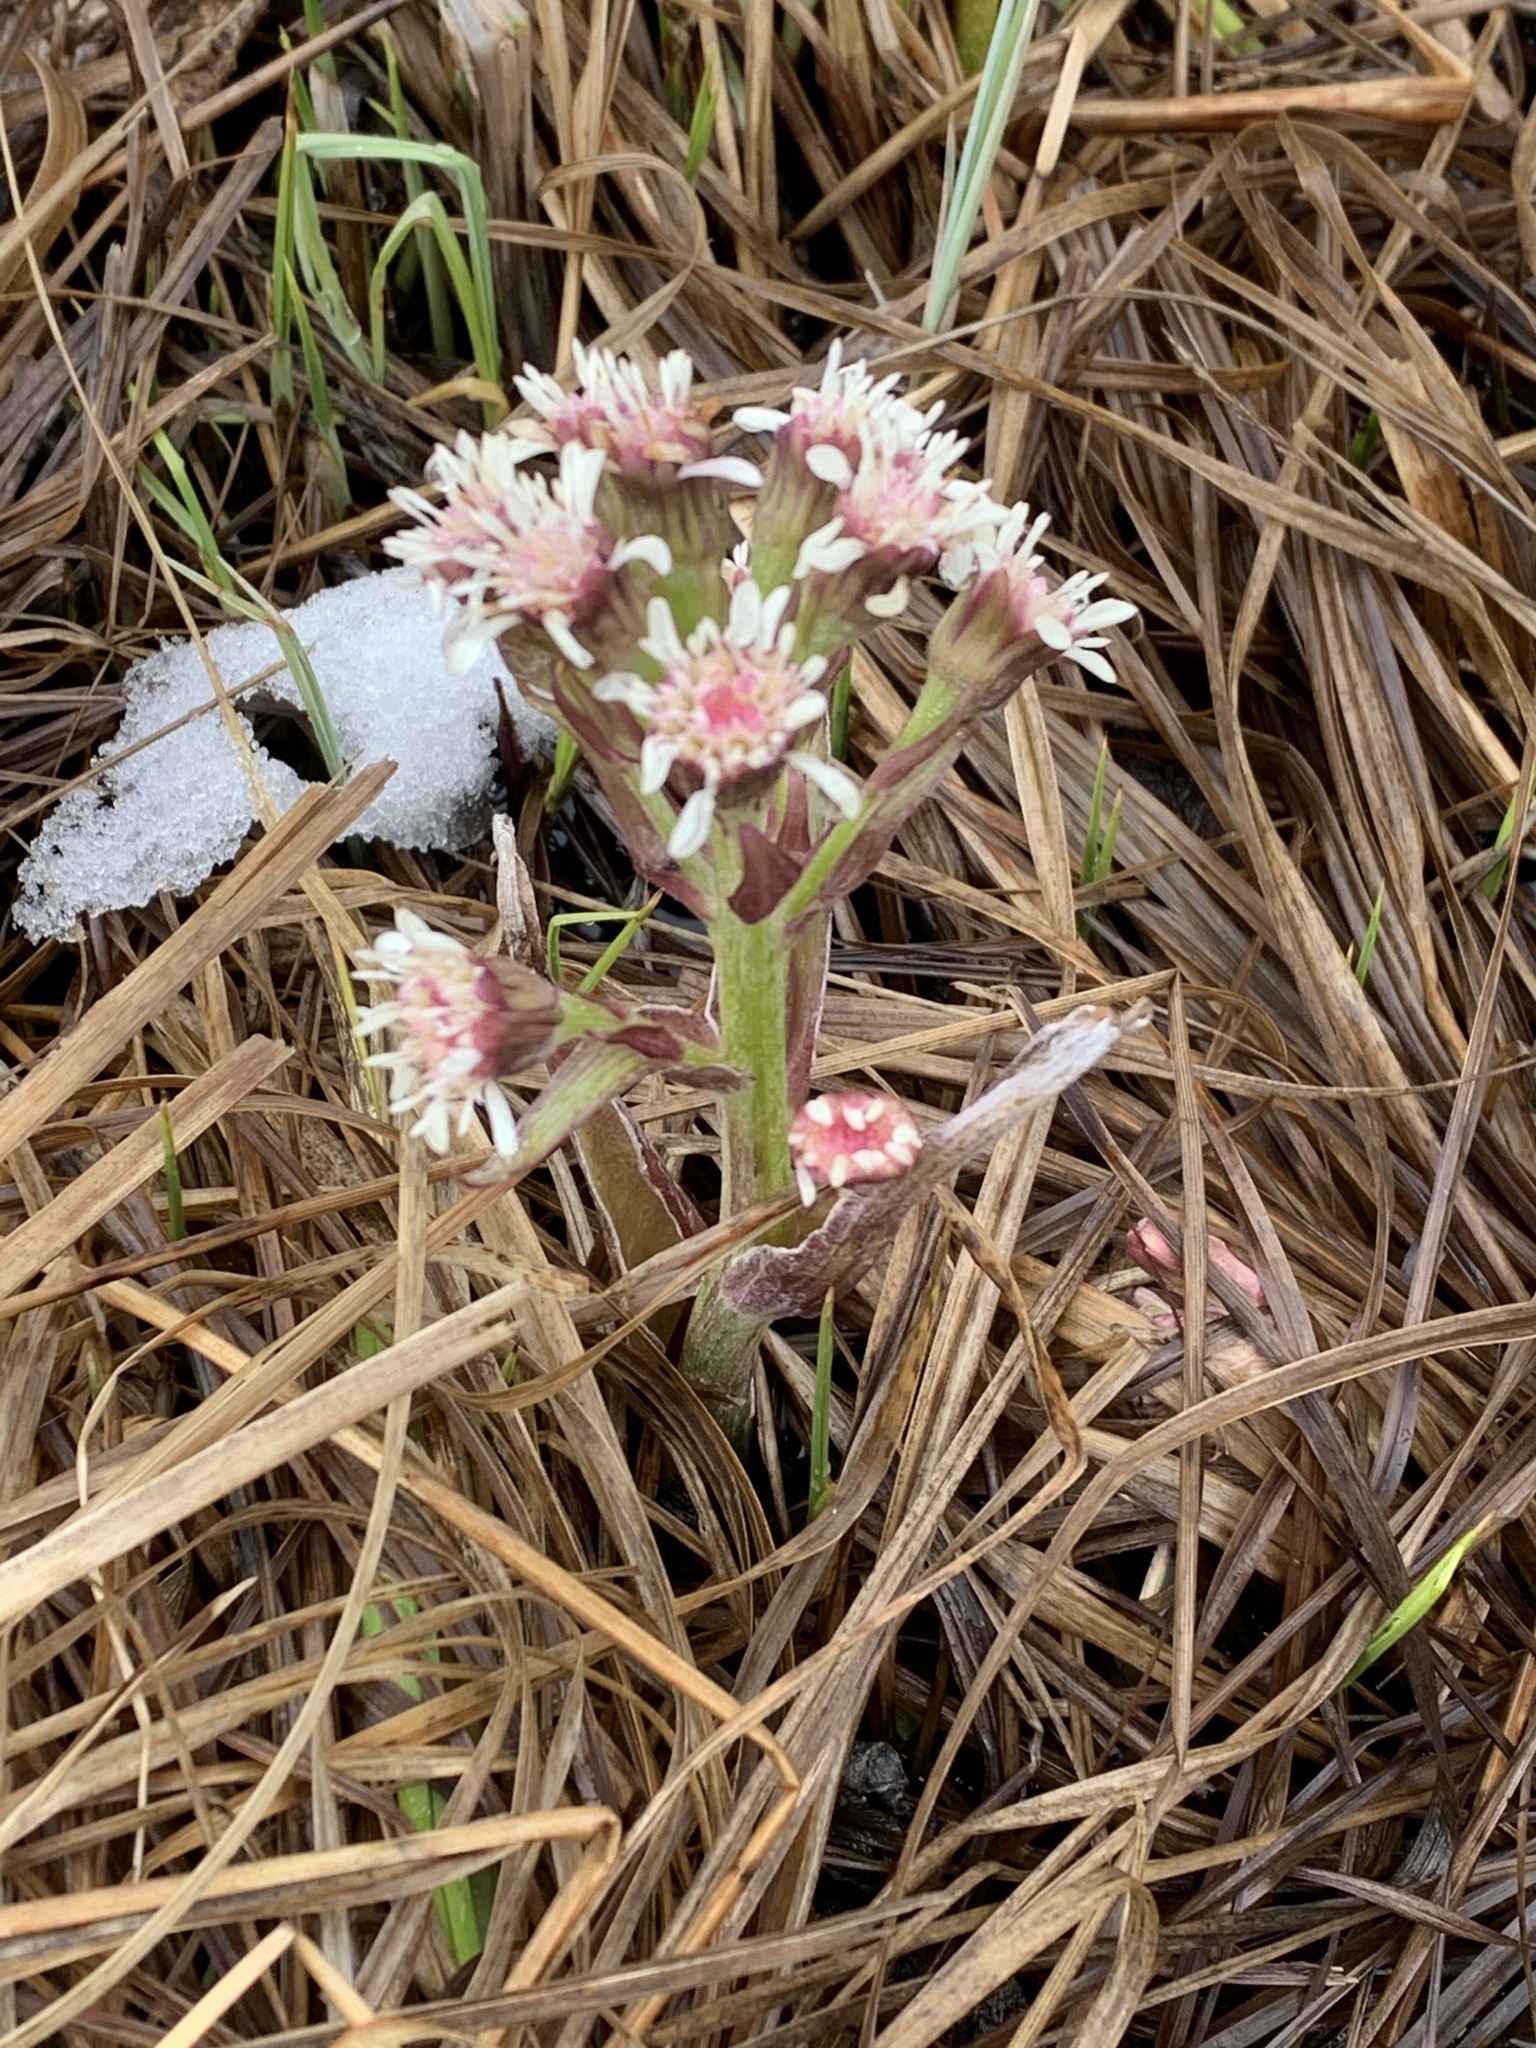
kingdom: Plantae
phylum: Tracheophyta
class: Magnoliopsida
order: Asterales
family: Asteraceae
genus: Petasites
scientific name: Petasites frigidus
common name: Arctic butterbur
